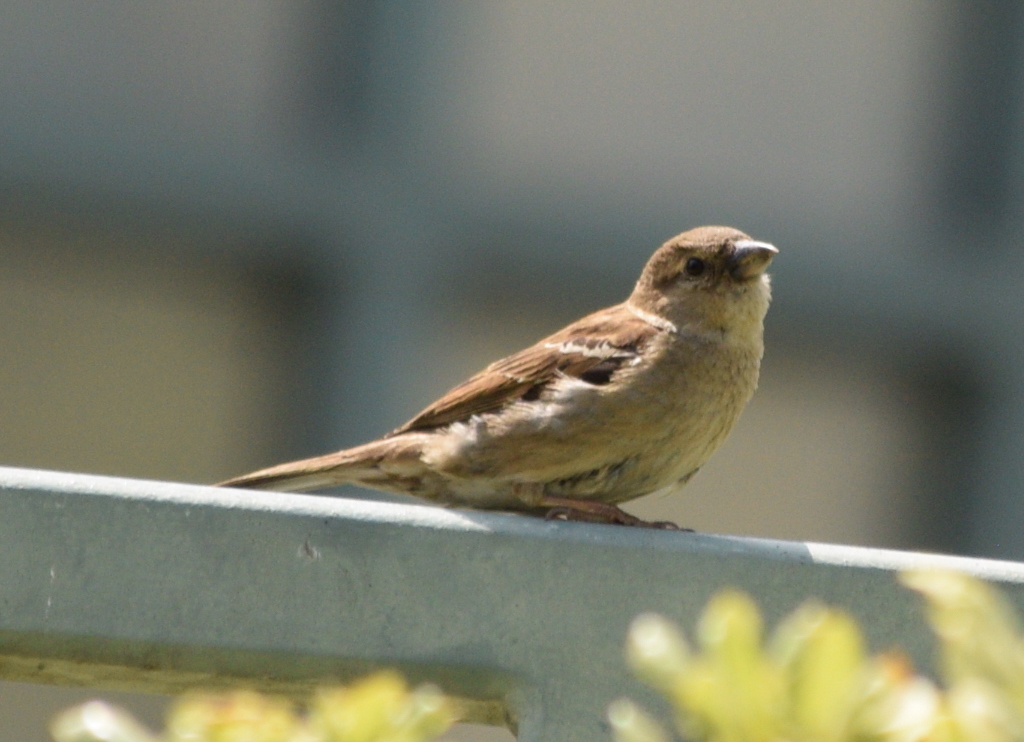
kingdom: Animalia
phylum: Chordata
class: Aves
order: Passeriformes
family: Passeridae
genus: Passer
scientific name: Passer domesticus
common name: House sparrow
